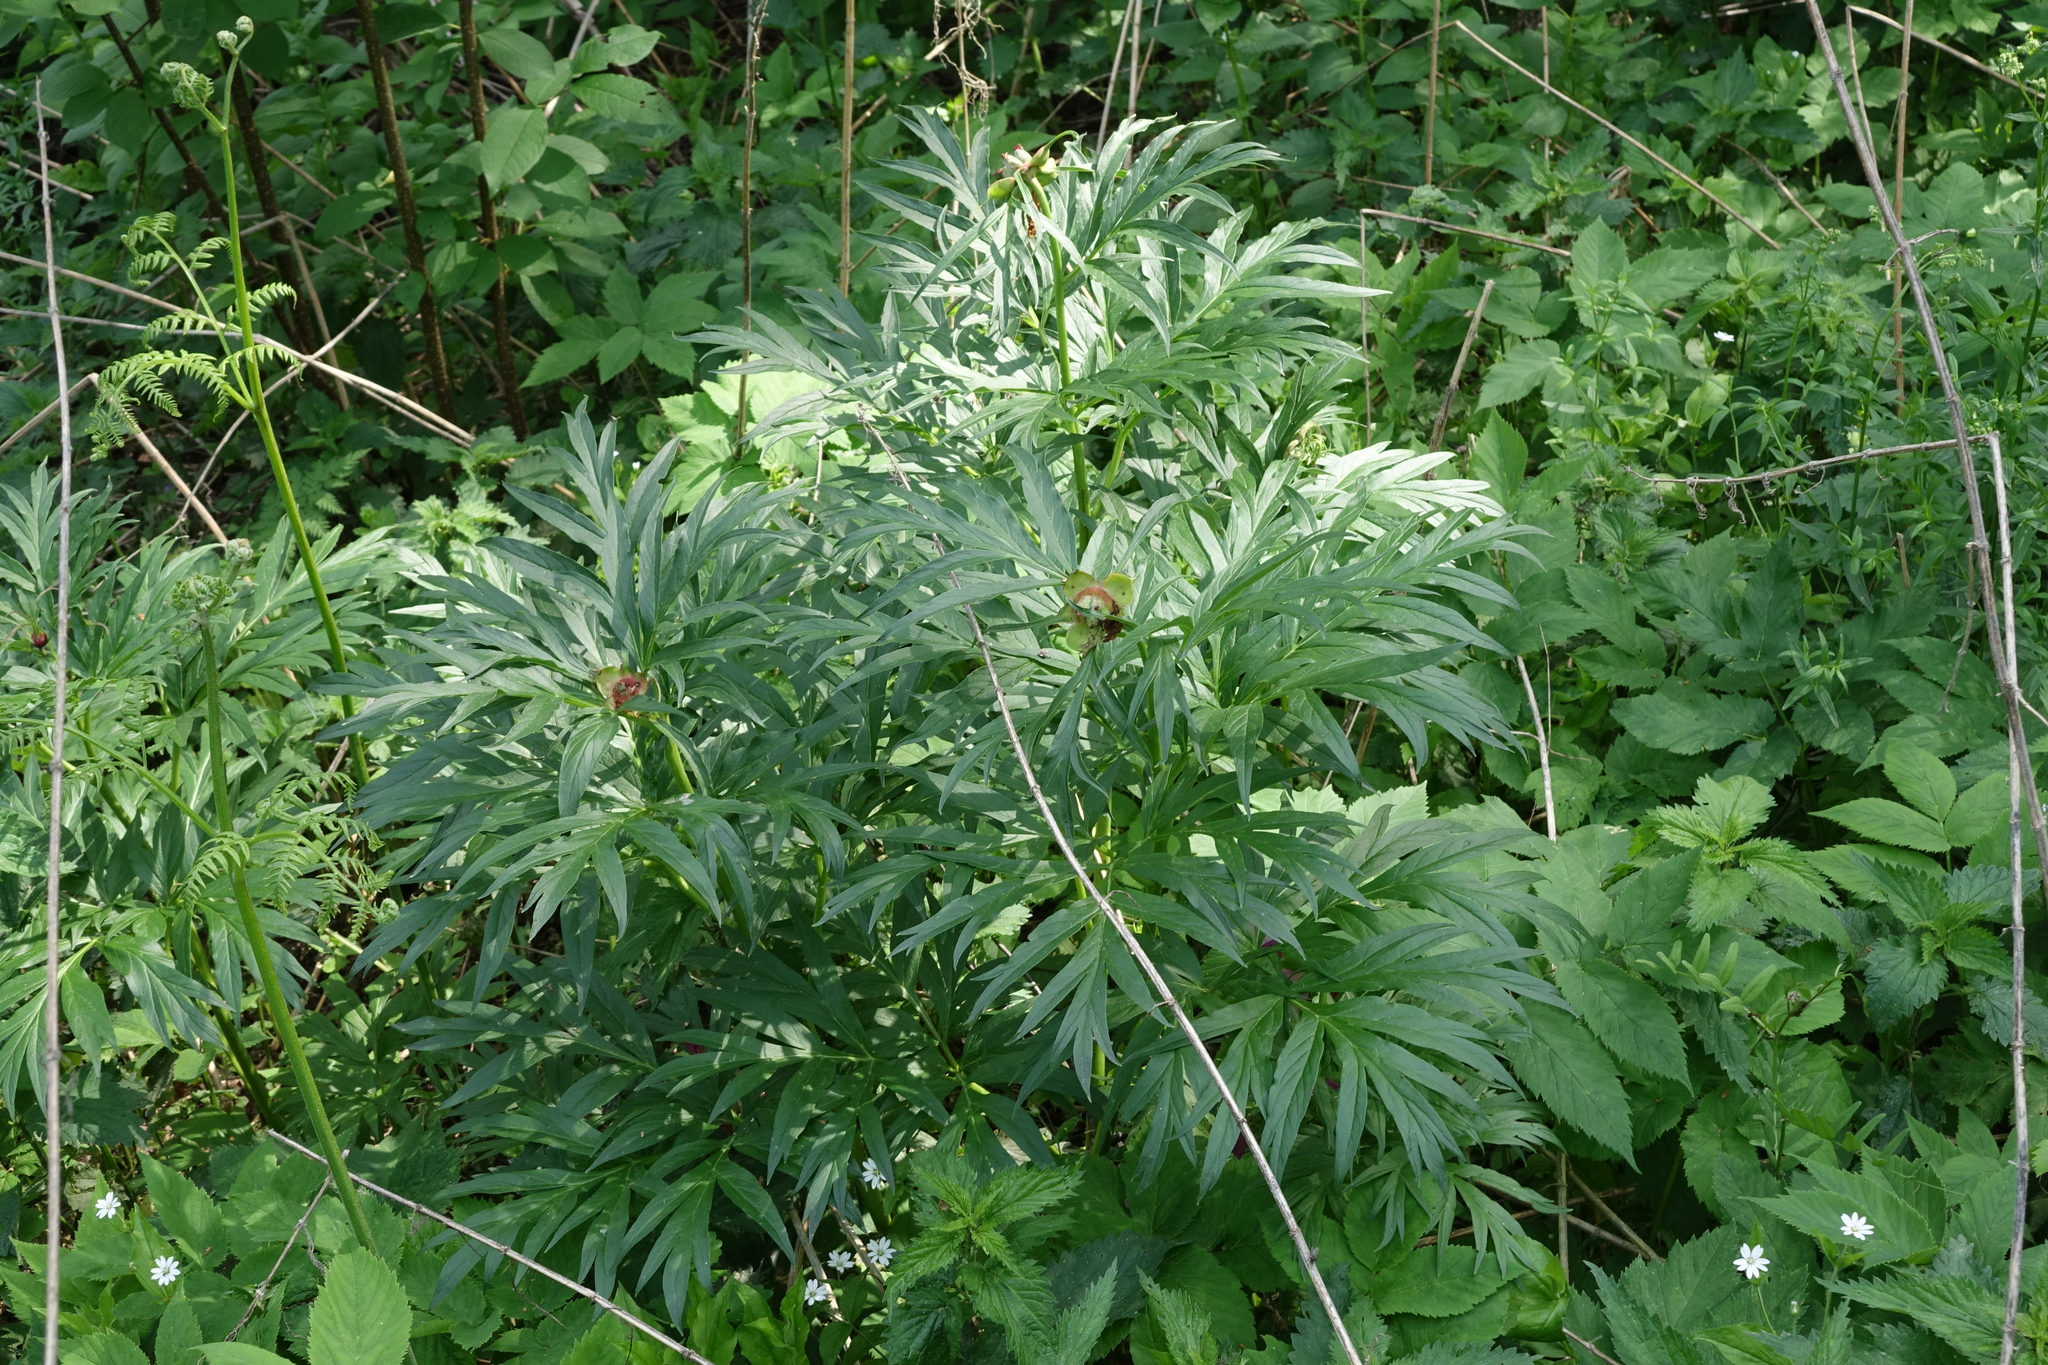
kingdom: Plantae
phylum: Tracheophyta
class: Magnoliopsida
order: Saxifragales
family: Paeoniaceae
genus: Paeonia
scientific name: Paeonia anomala
